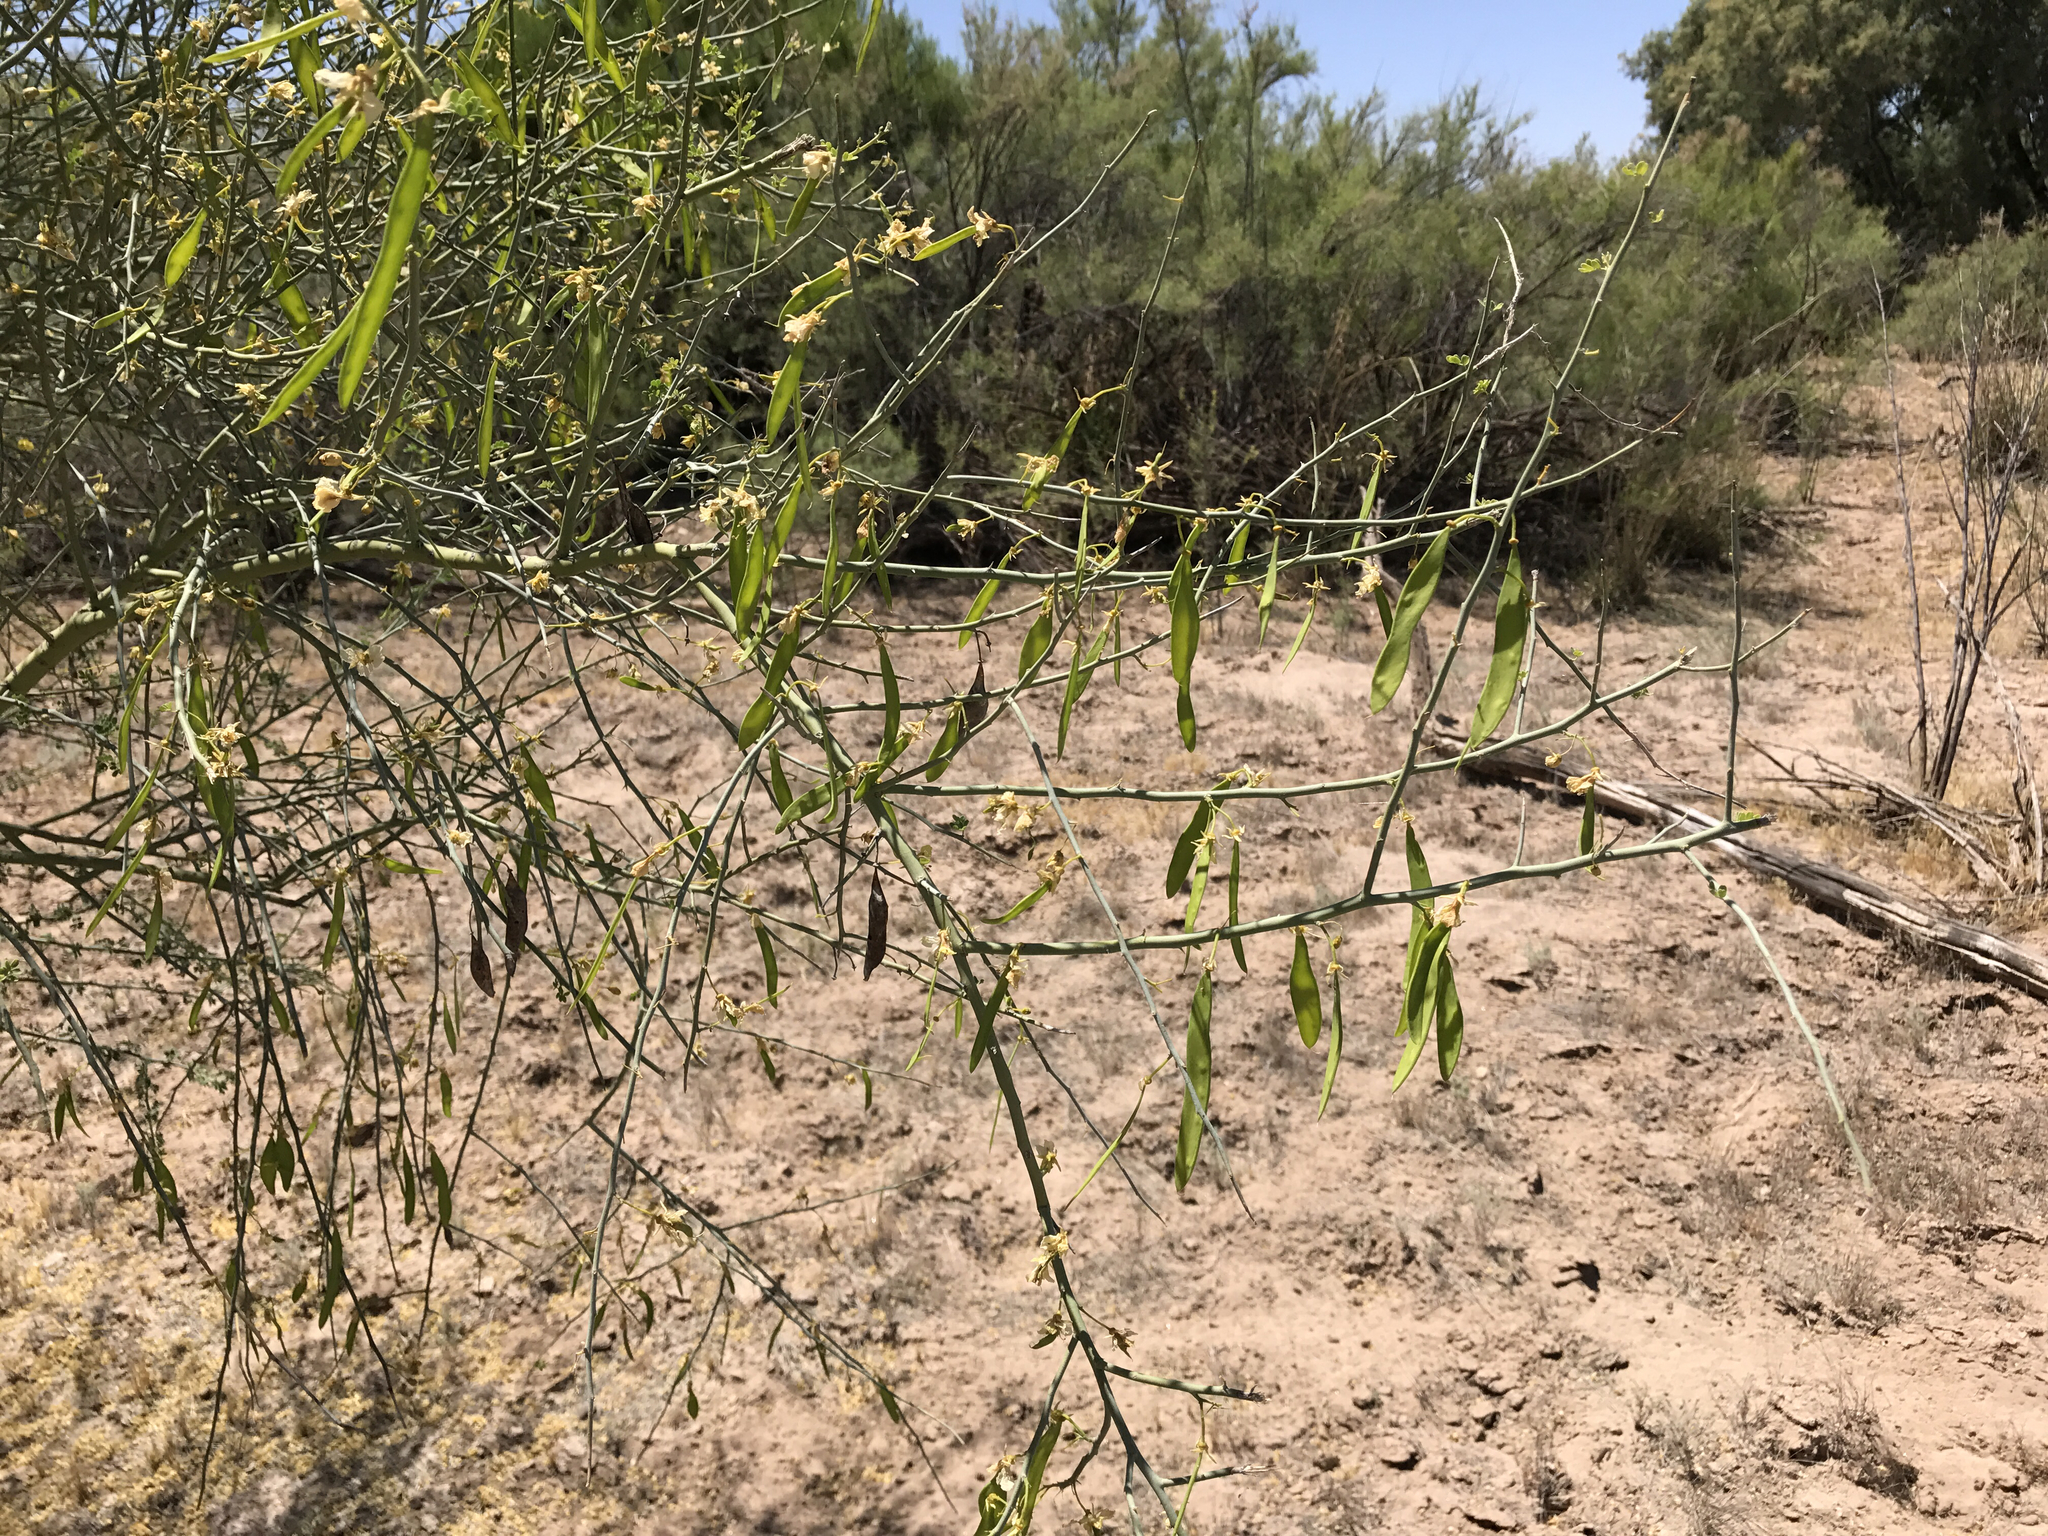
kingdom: Plantae
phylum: Tracheophyta
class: Magnoliopsida
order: Fabales
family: Fabaceae
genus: Parkinsonia
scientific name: Parkinsonia florida
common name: Blue paloverde
